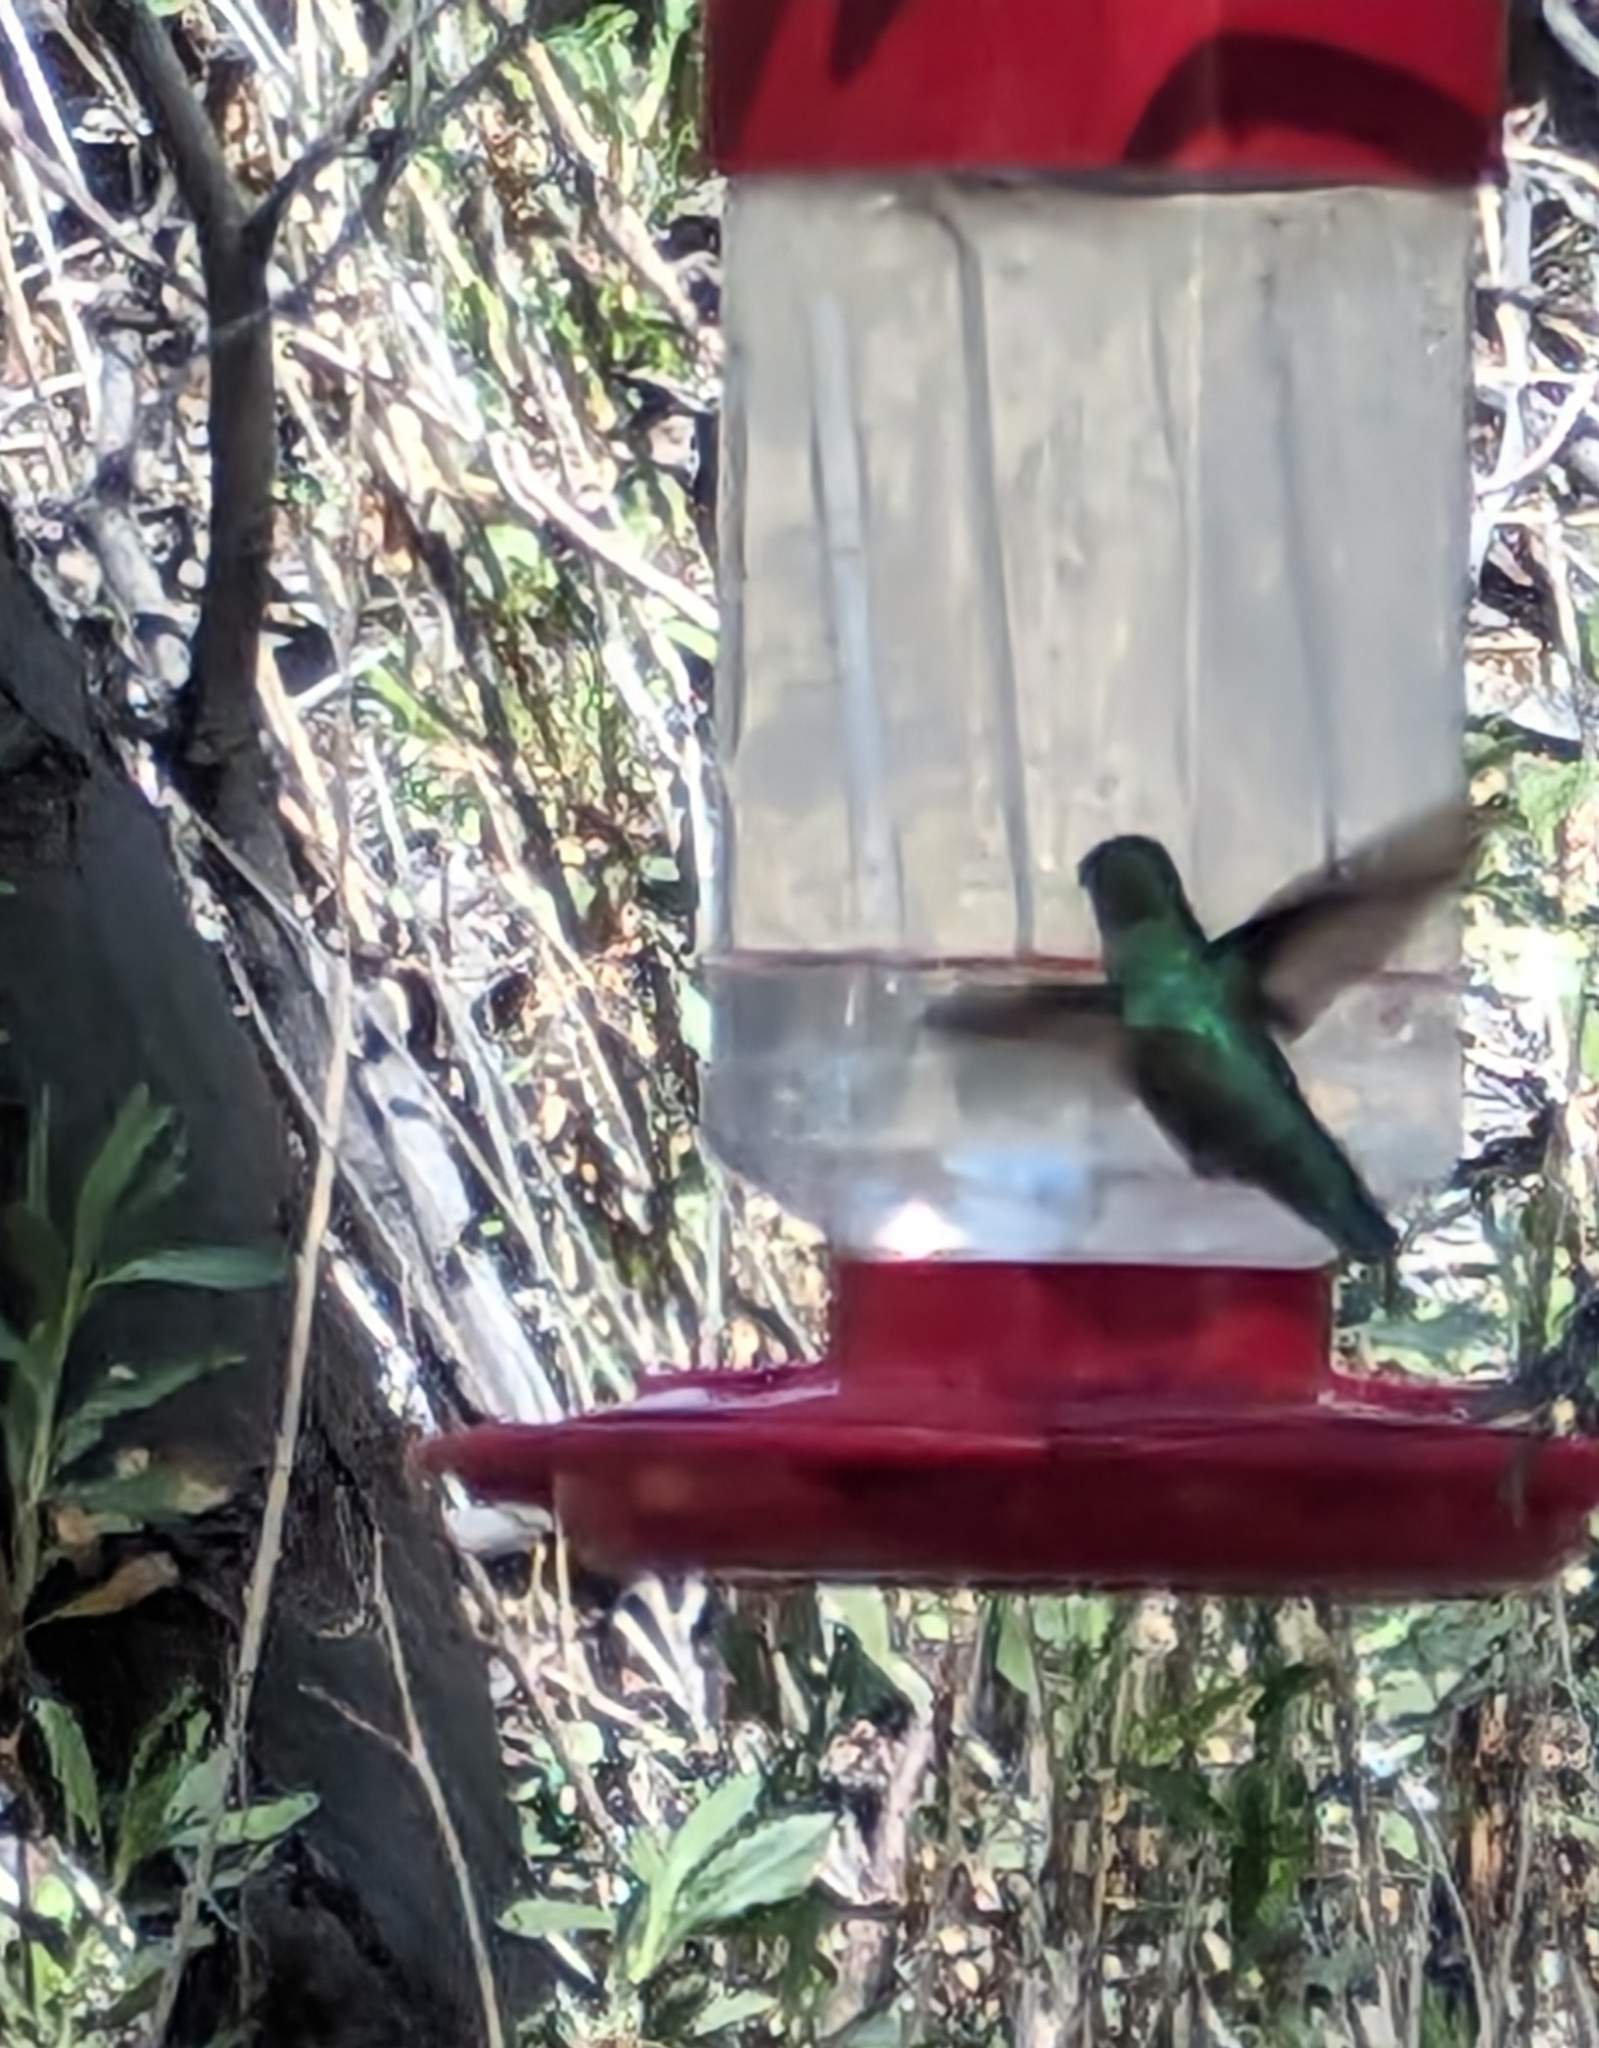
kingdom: Animalia
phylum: Chordata
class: Aves
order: Apodiformes
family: Trochilidae
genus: Calypte
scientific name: Calypte anna
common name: Anna's hummingbird
